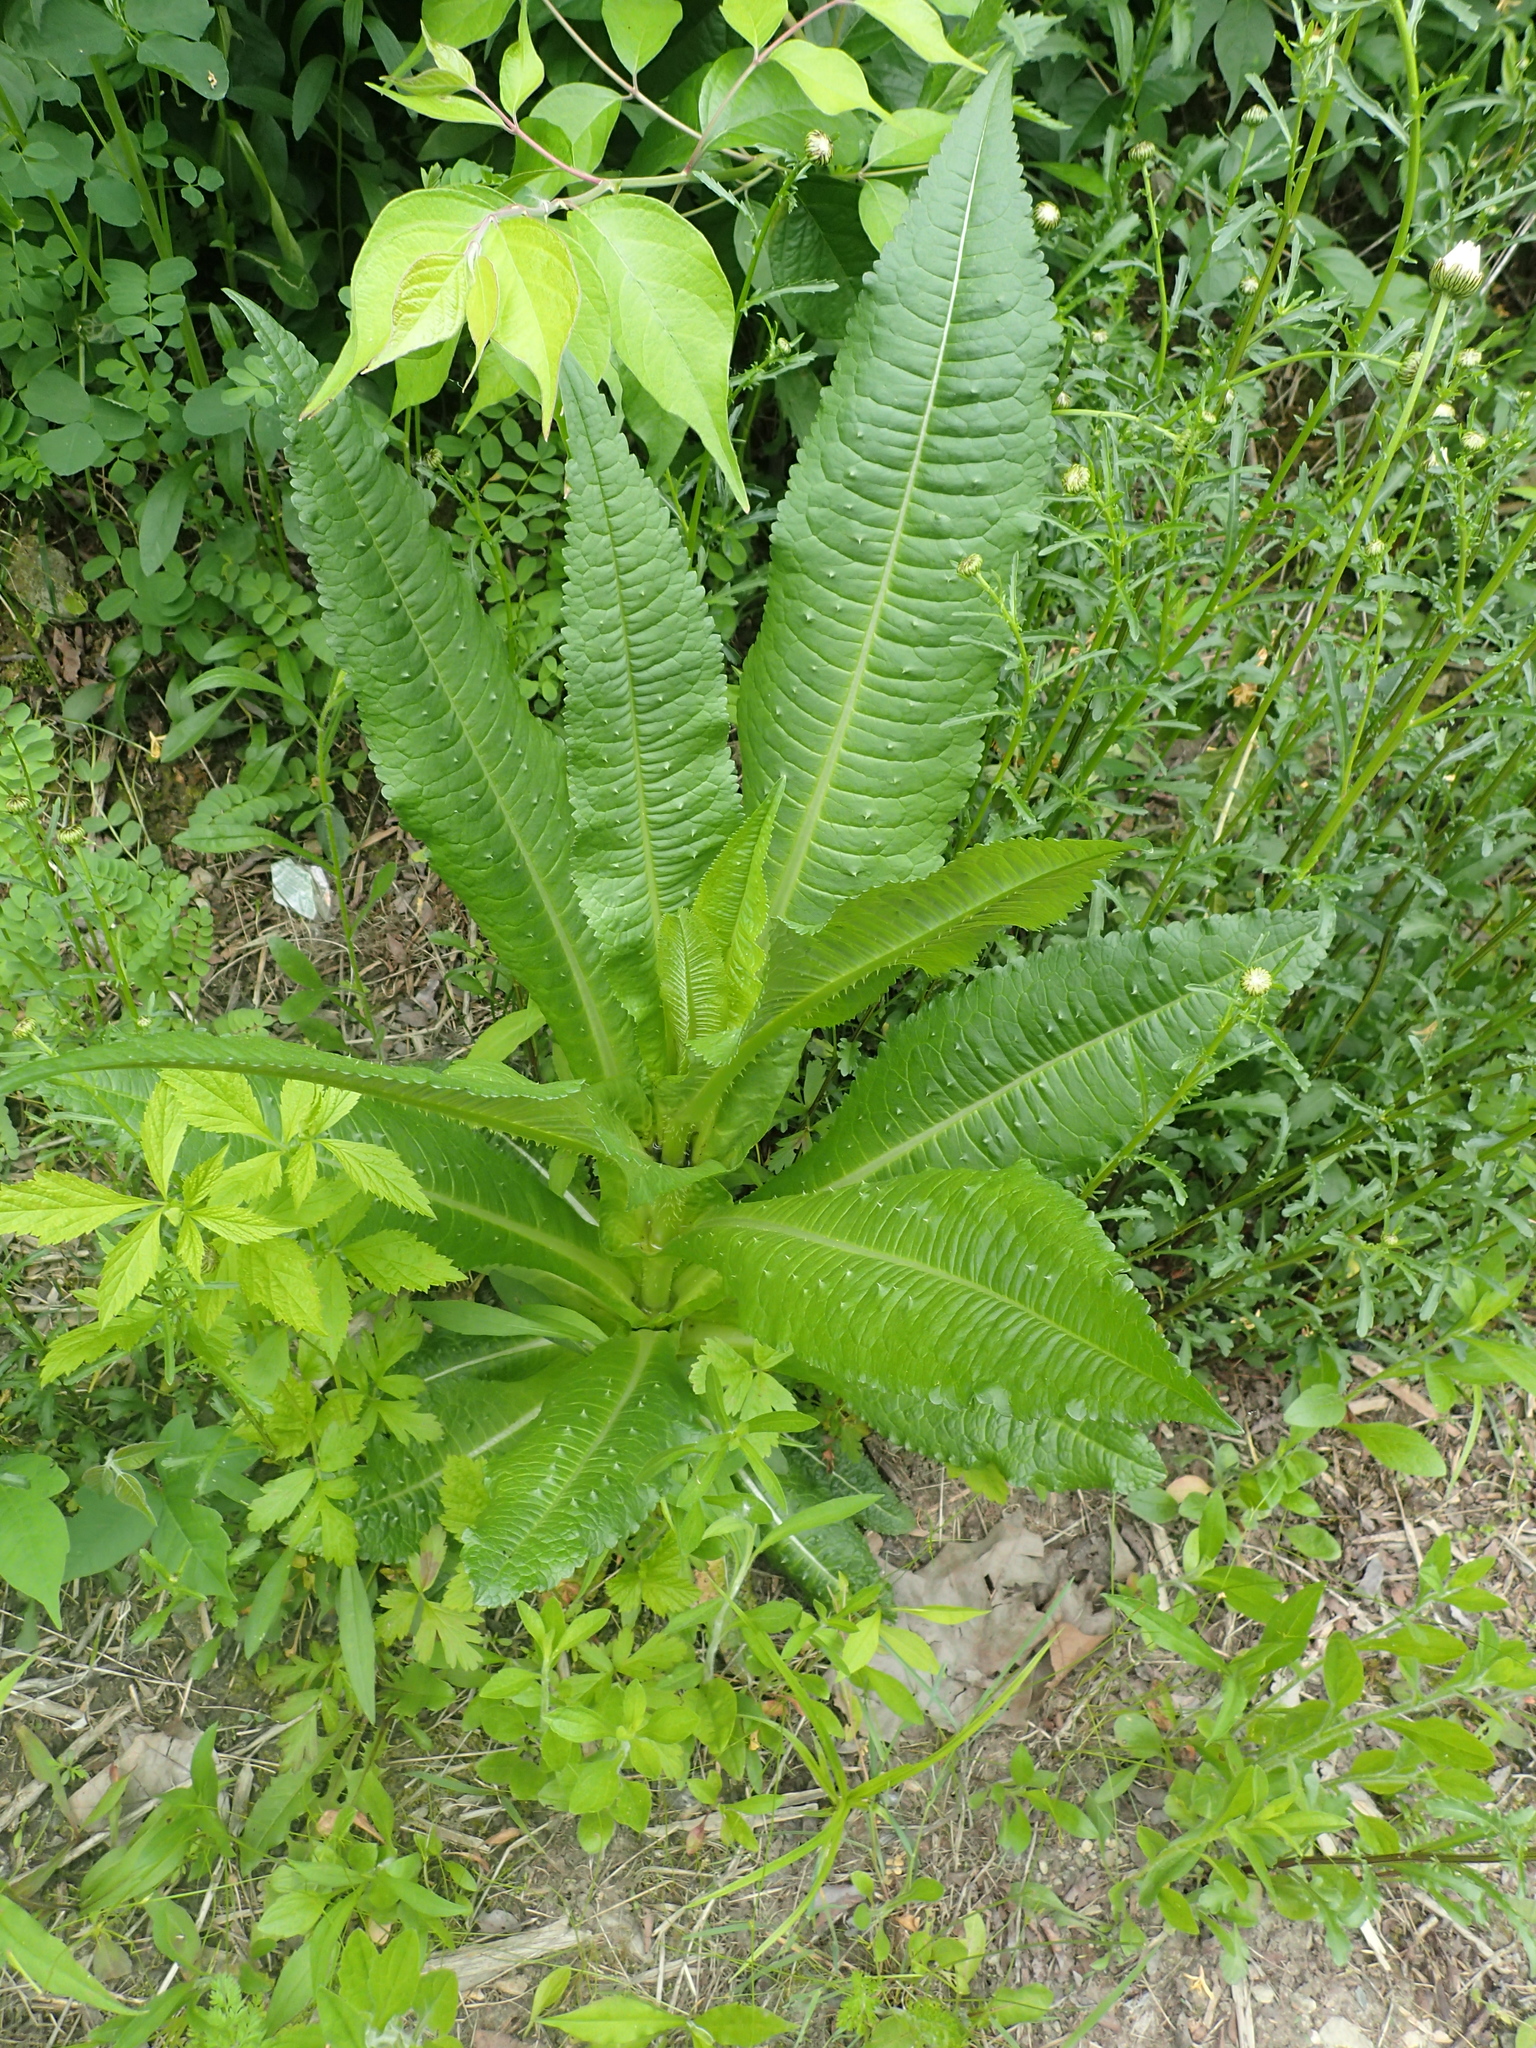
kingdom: Plantae
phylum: Tracheophyta
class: Magnoliopsida
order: Dipsacales
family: Caprifoliaceae
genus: Dipsacus
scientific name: Dipsacus fullonum
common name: Teasel
